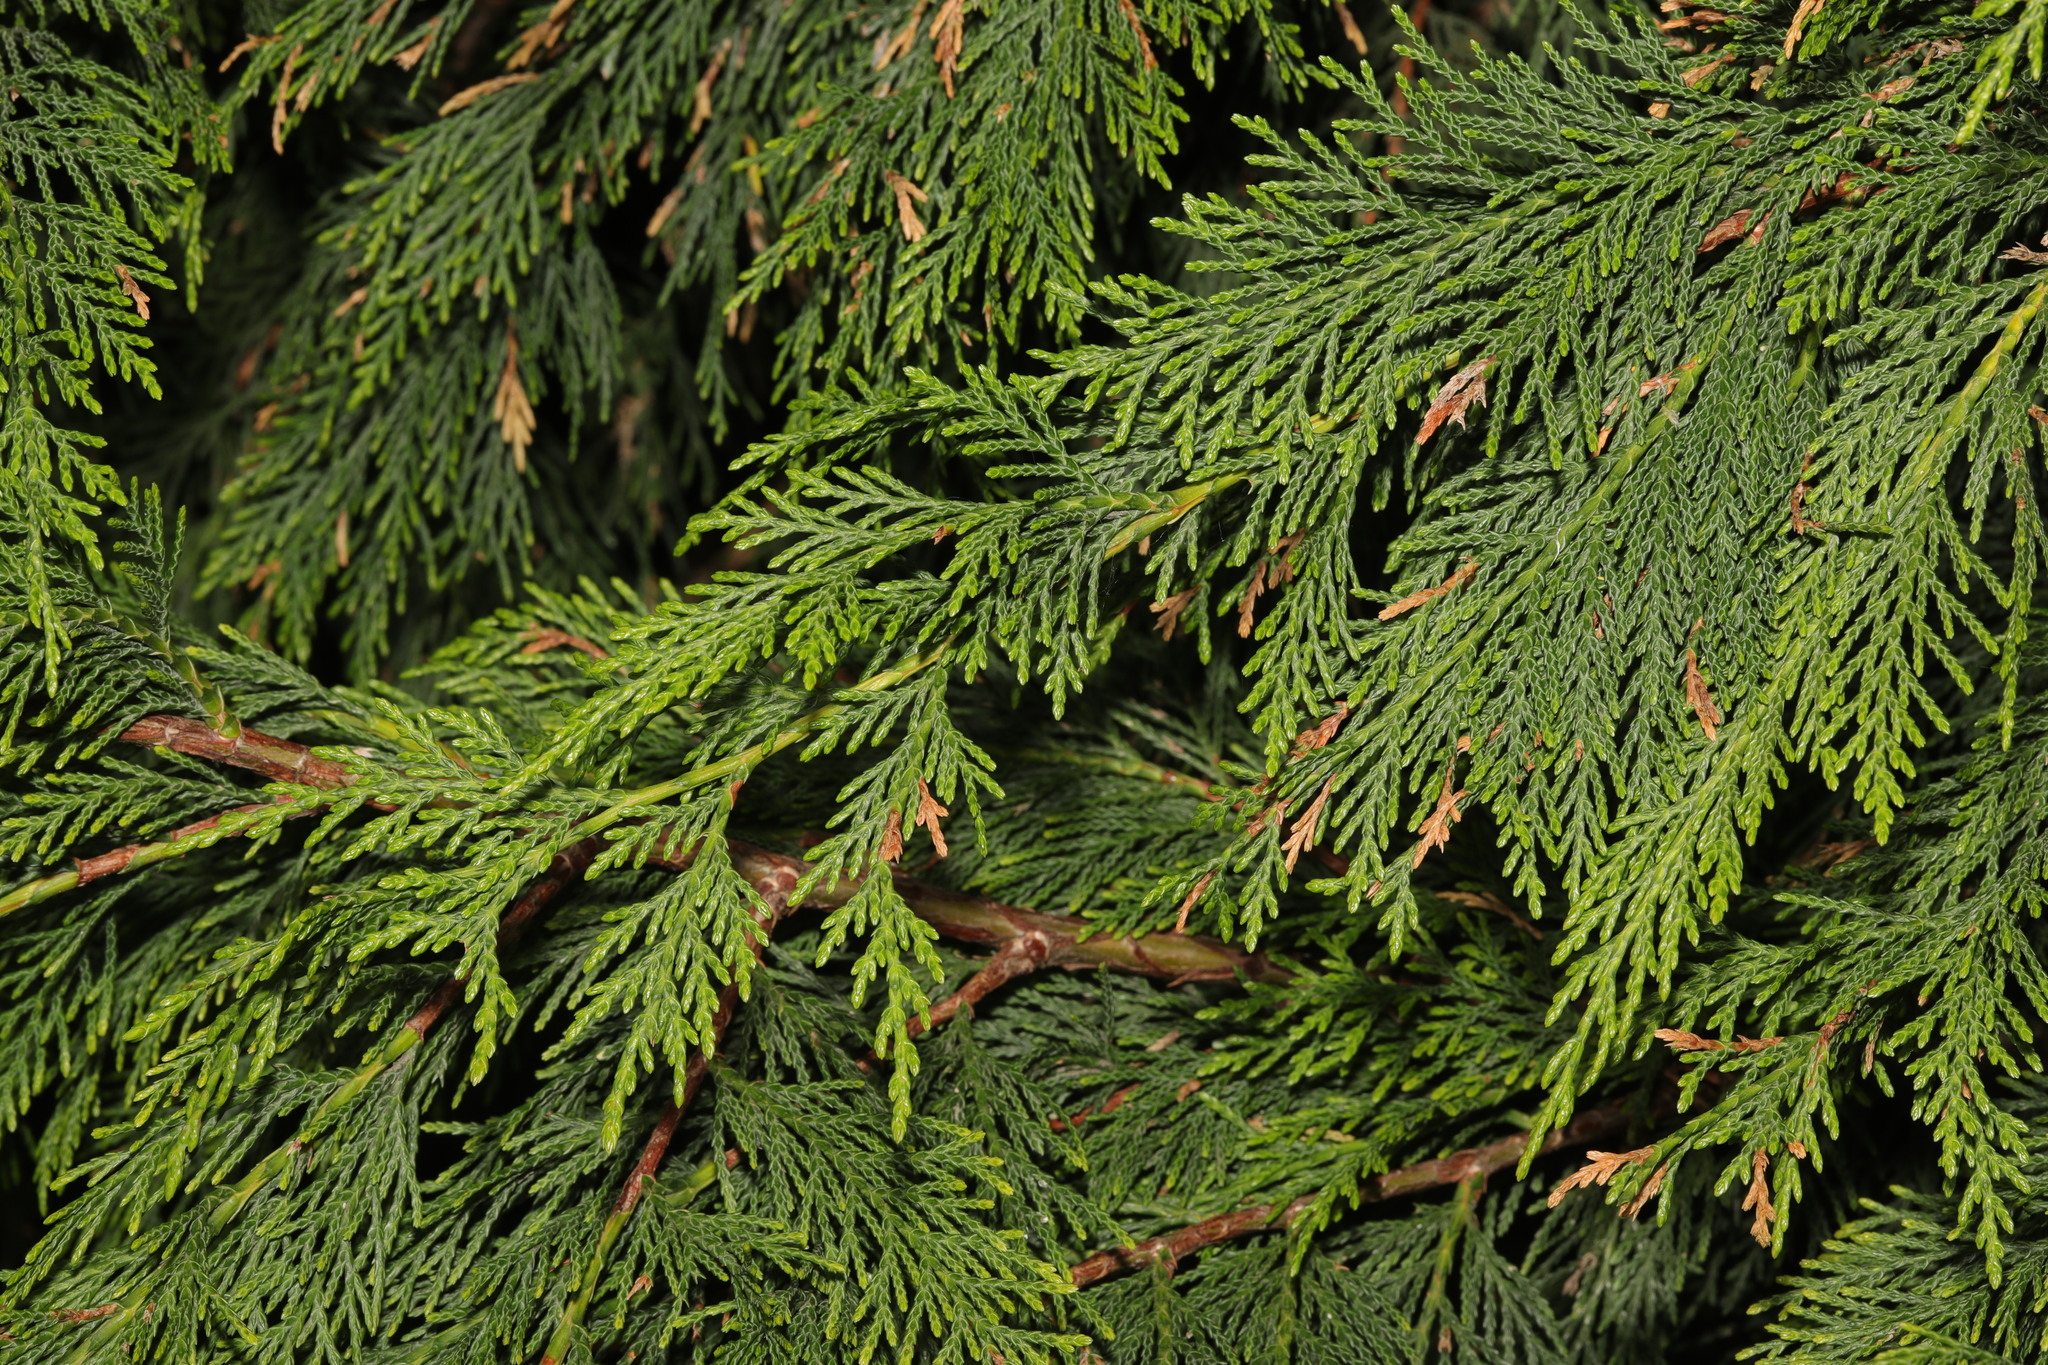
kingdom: Plantae
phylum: Tracheophyta
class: Pinopsida
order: Pinales
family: Cupressaceae
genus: Chamaecyparis
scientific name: Chamaecyparis lawsoniana
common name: Lawson's cypress
